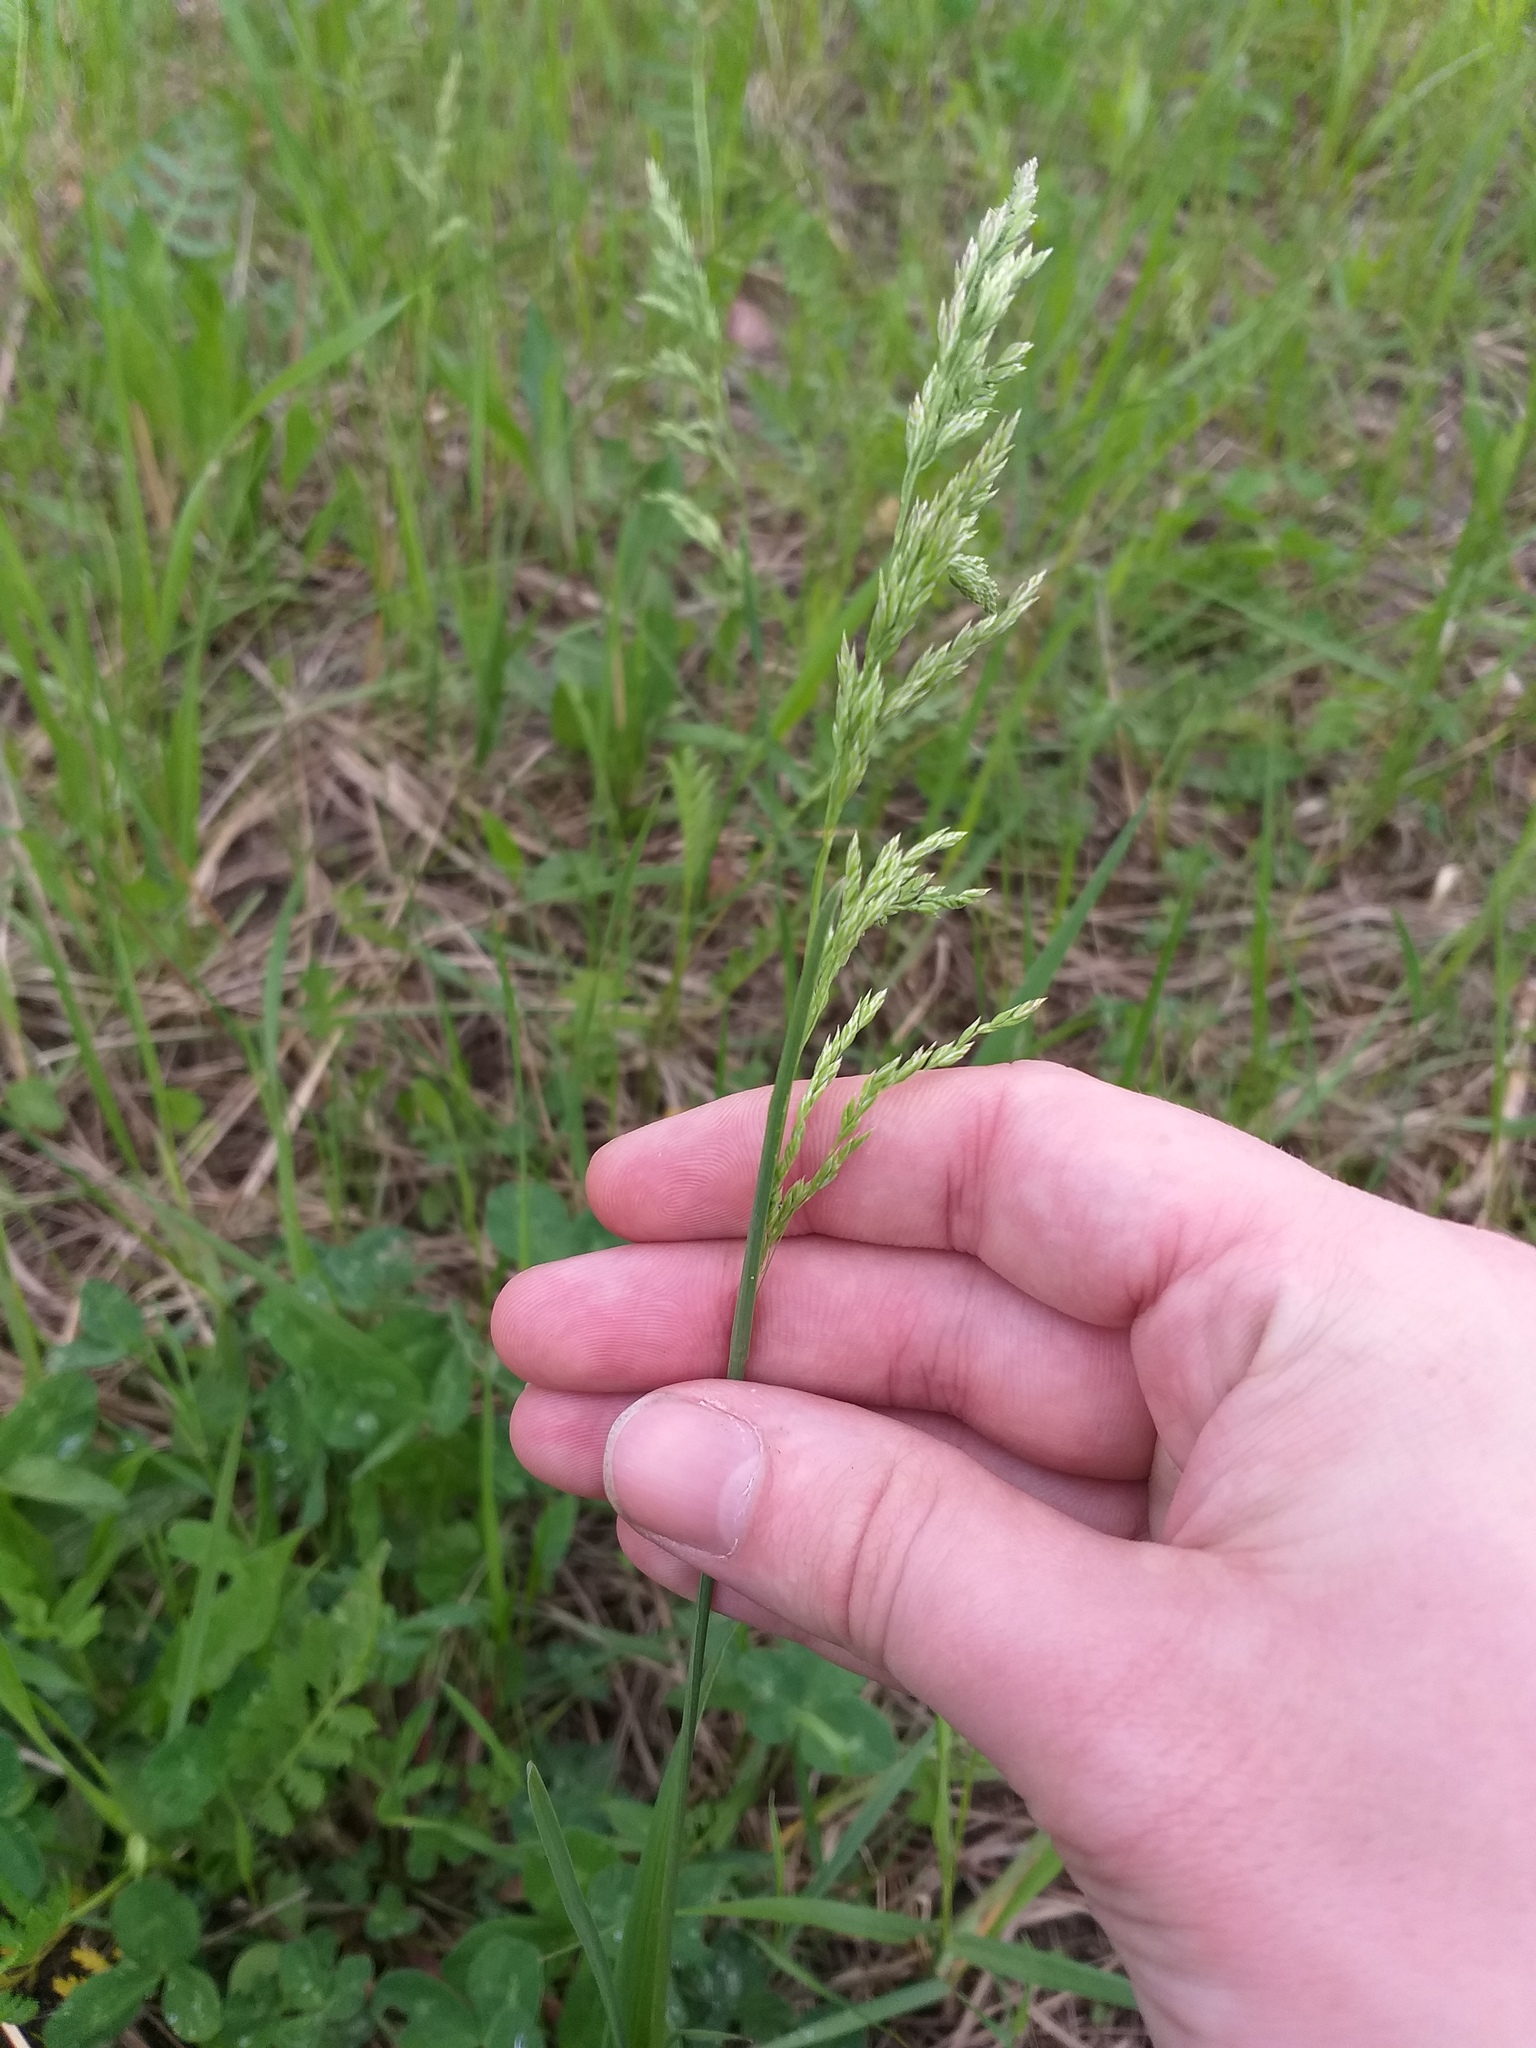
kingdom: Plantae
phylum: Tracheophyta
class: Liliopsida
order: Poales
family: Poaceae
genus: Poa
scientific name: Poa pratensis
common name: Kentucky bluegrass
